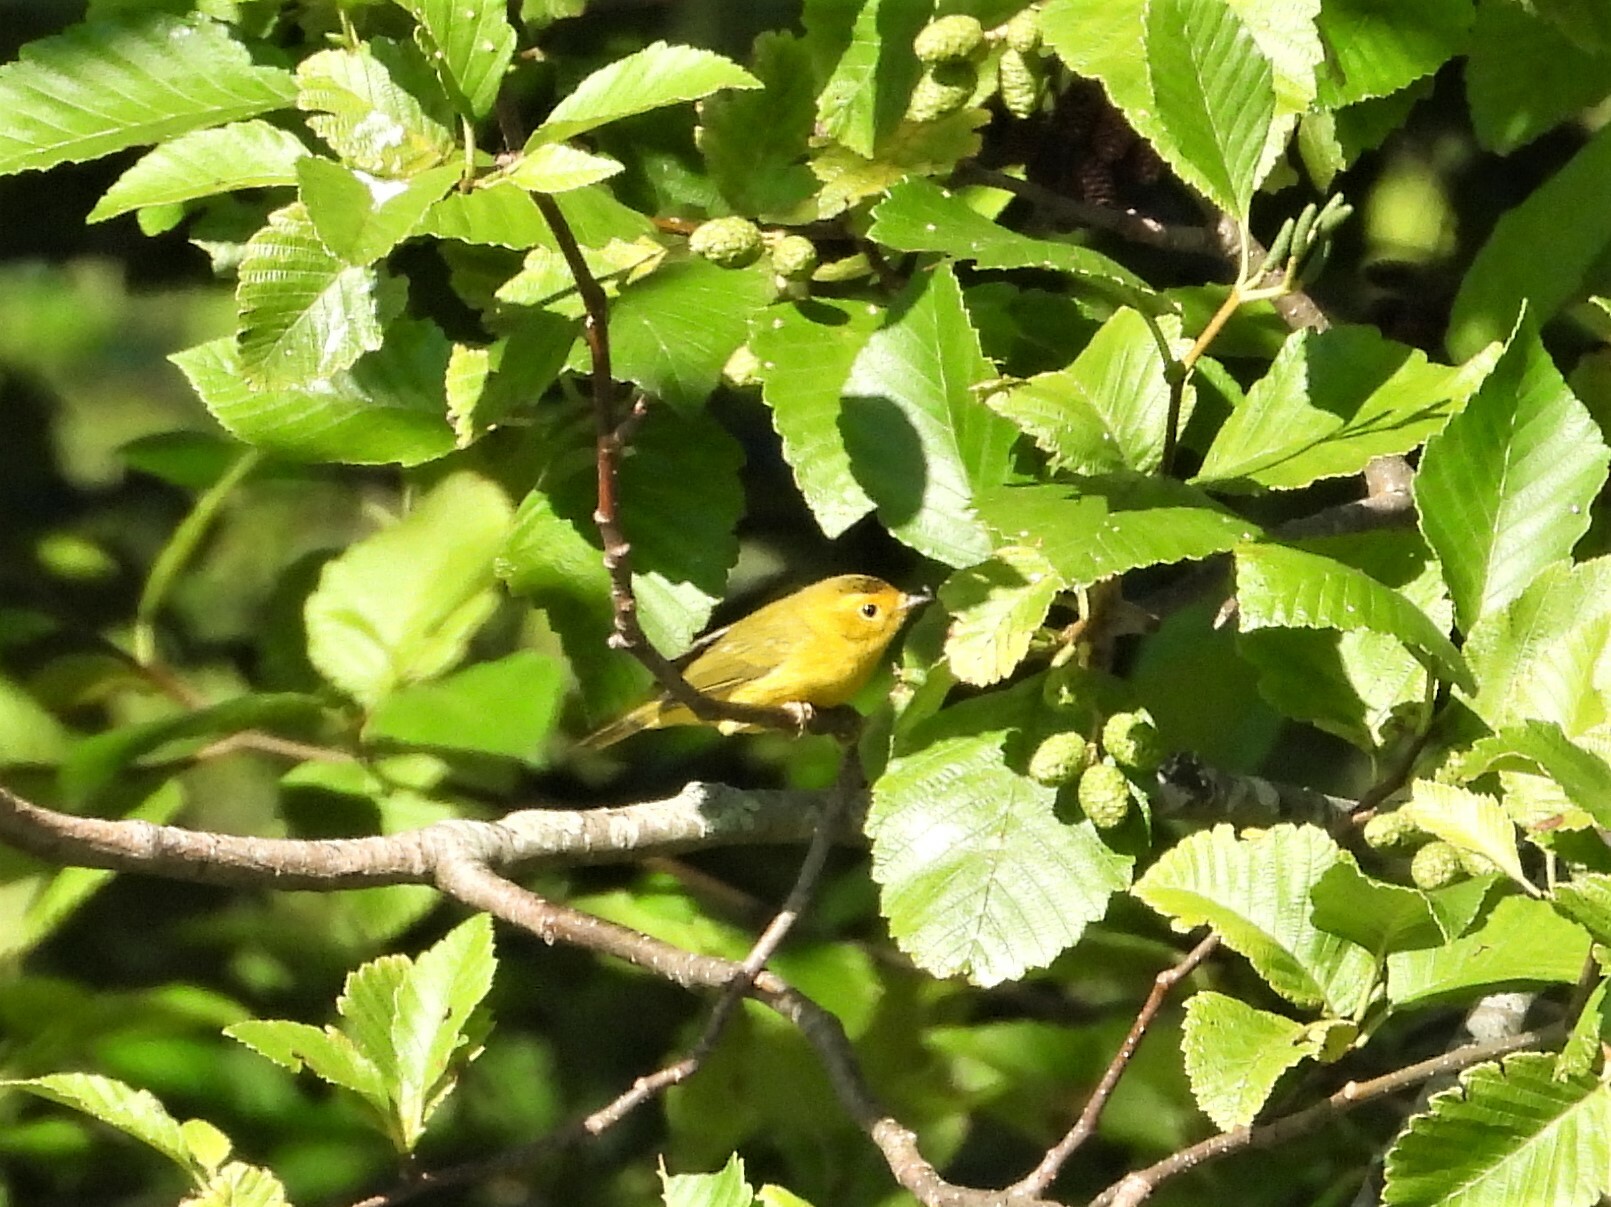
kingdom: Animalia
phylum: Chordata
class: Aves
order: Passeriformes
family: Parulidae
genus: Cardellina
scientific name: Cardellina pusilla
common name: Wilson's warbler
